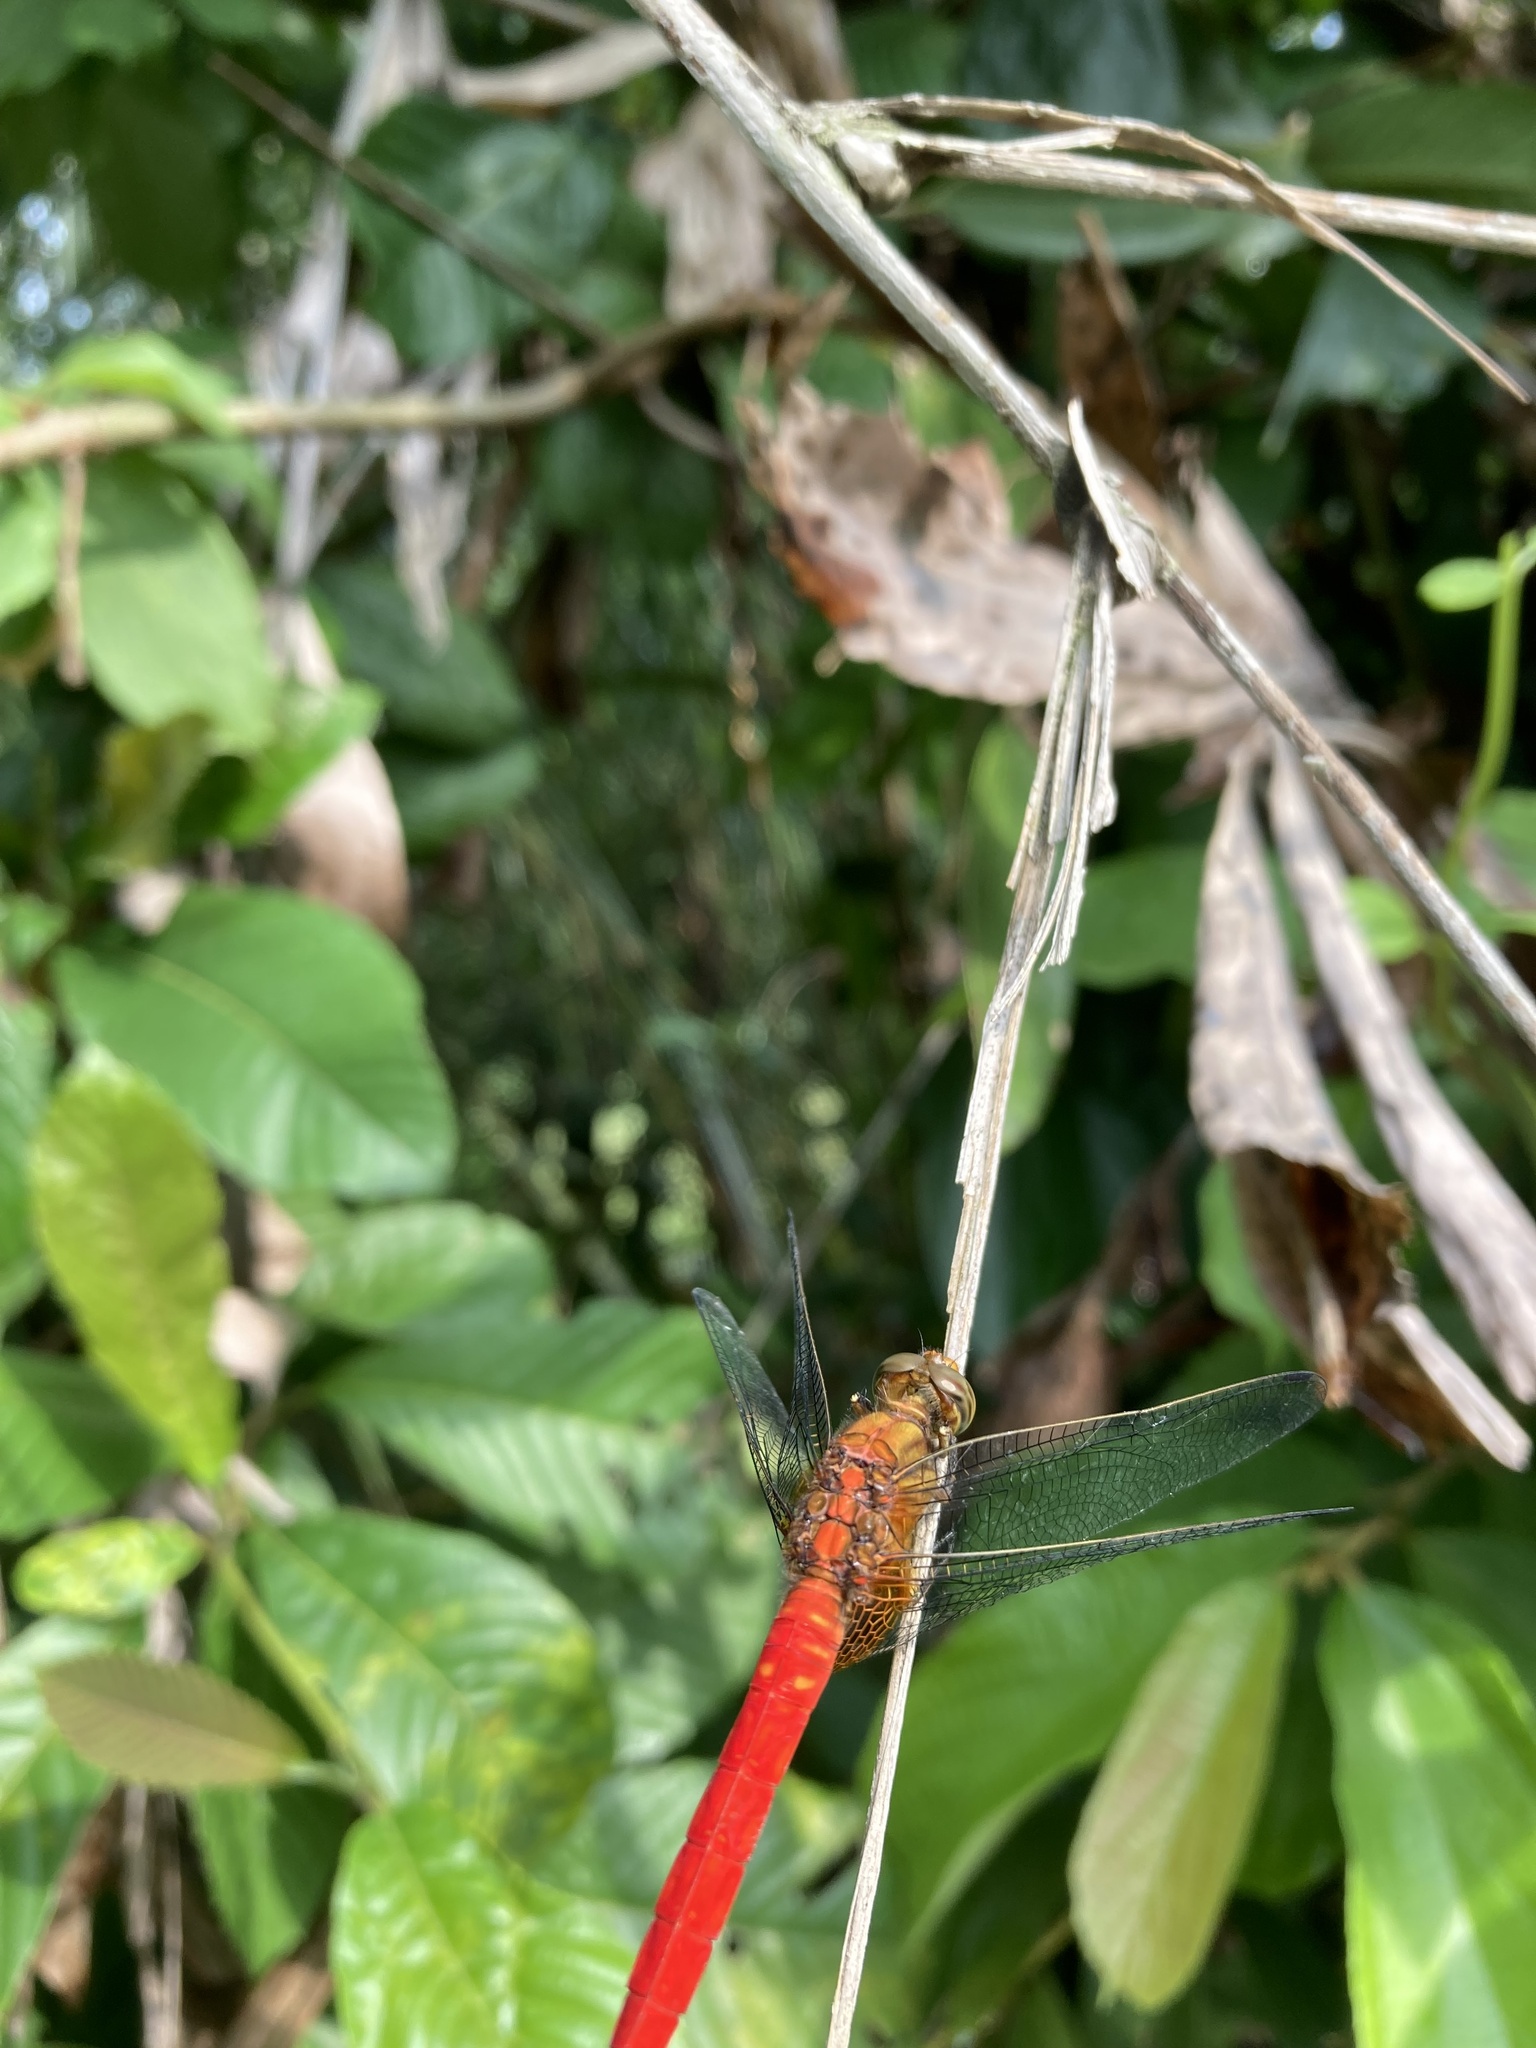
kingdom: Animalia
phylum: Arthropoda
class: Insecta
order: Odonata
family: Libellulidae
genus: Orthetrum
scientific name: Orthetrum testaceum
